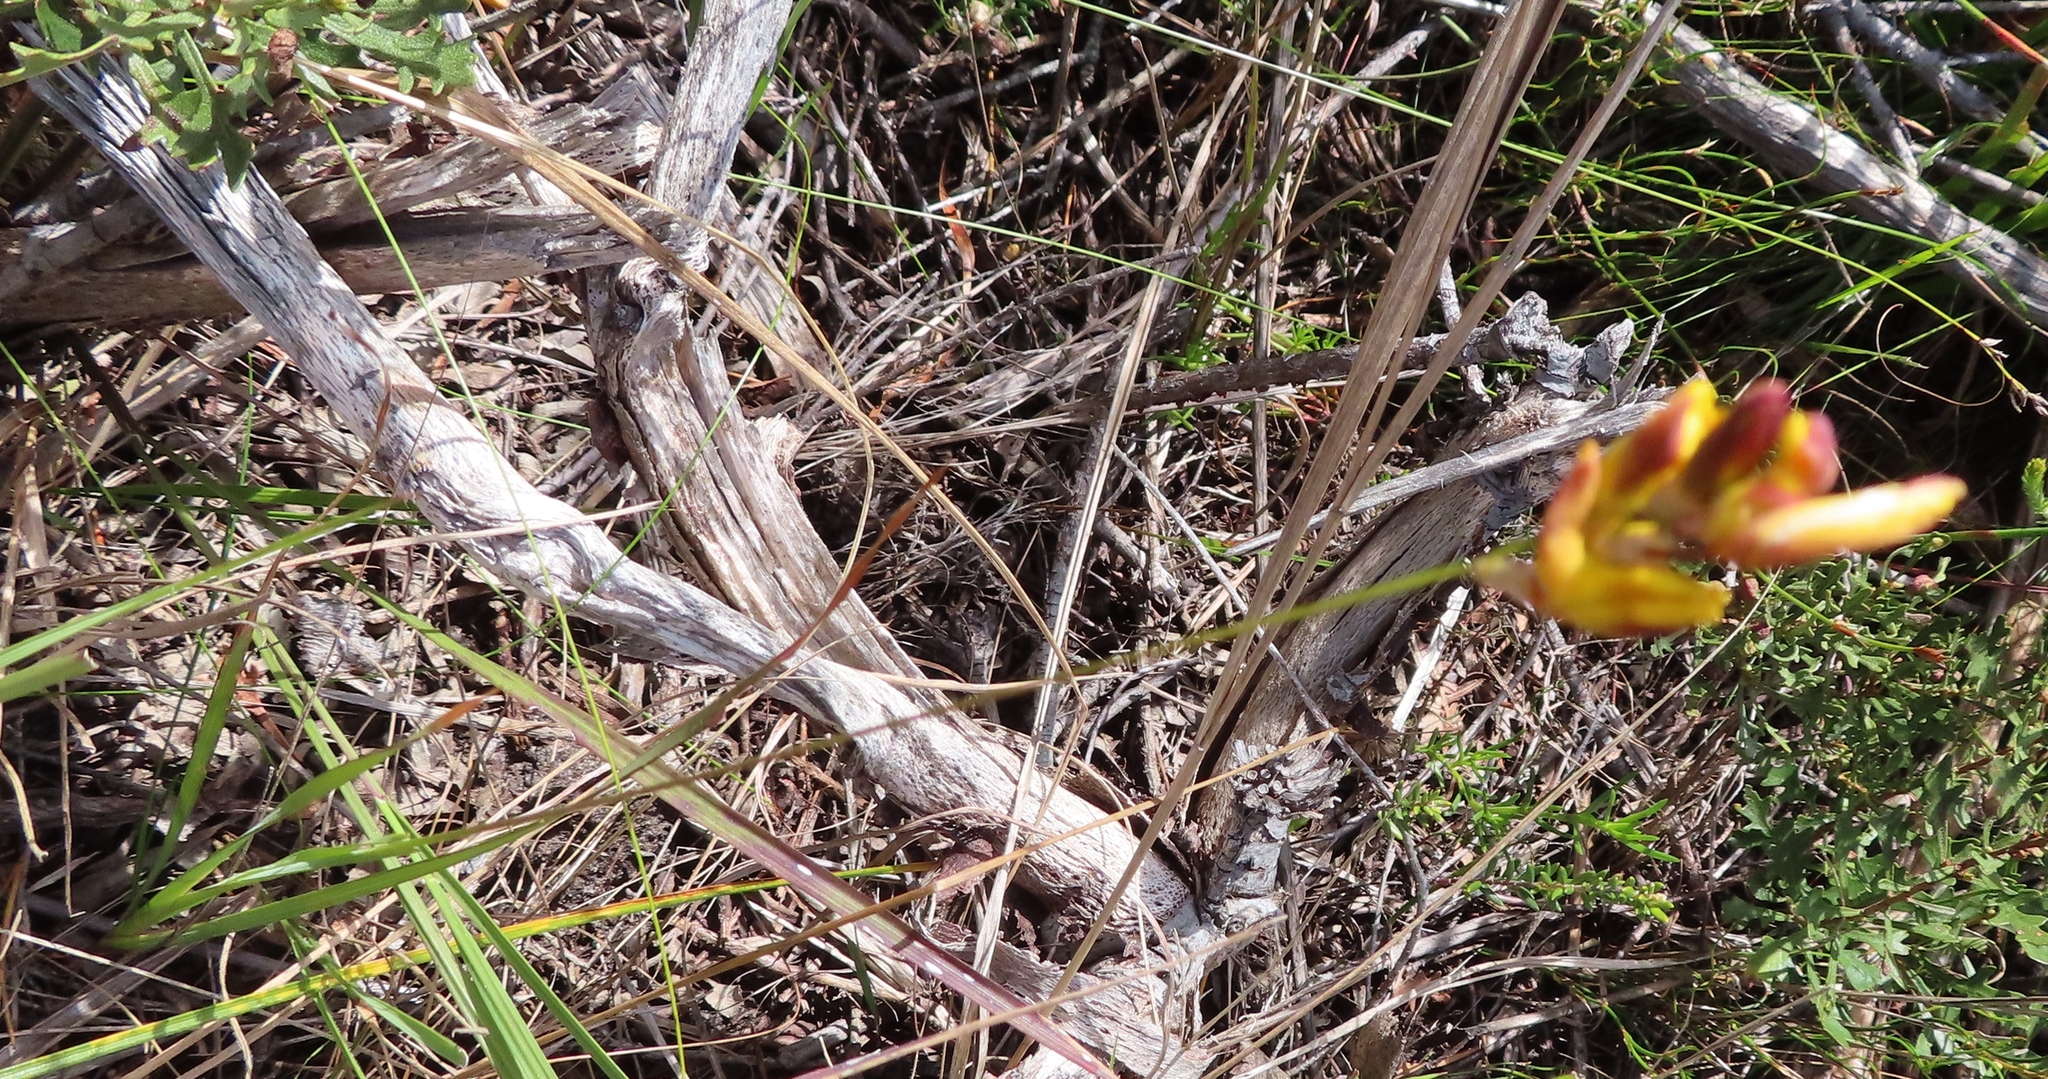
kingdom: Plantae
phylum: Tracheophyta
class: Liliopsida
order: Asparagales
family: Iridaceae
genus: Ixia
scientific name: Ixia dubia
